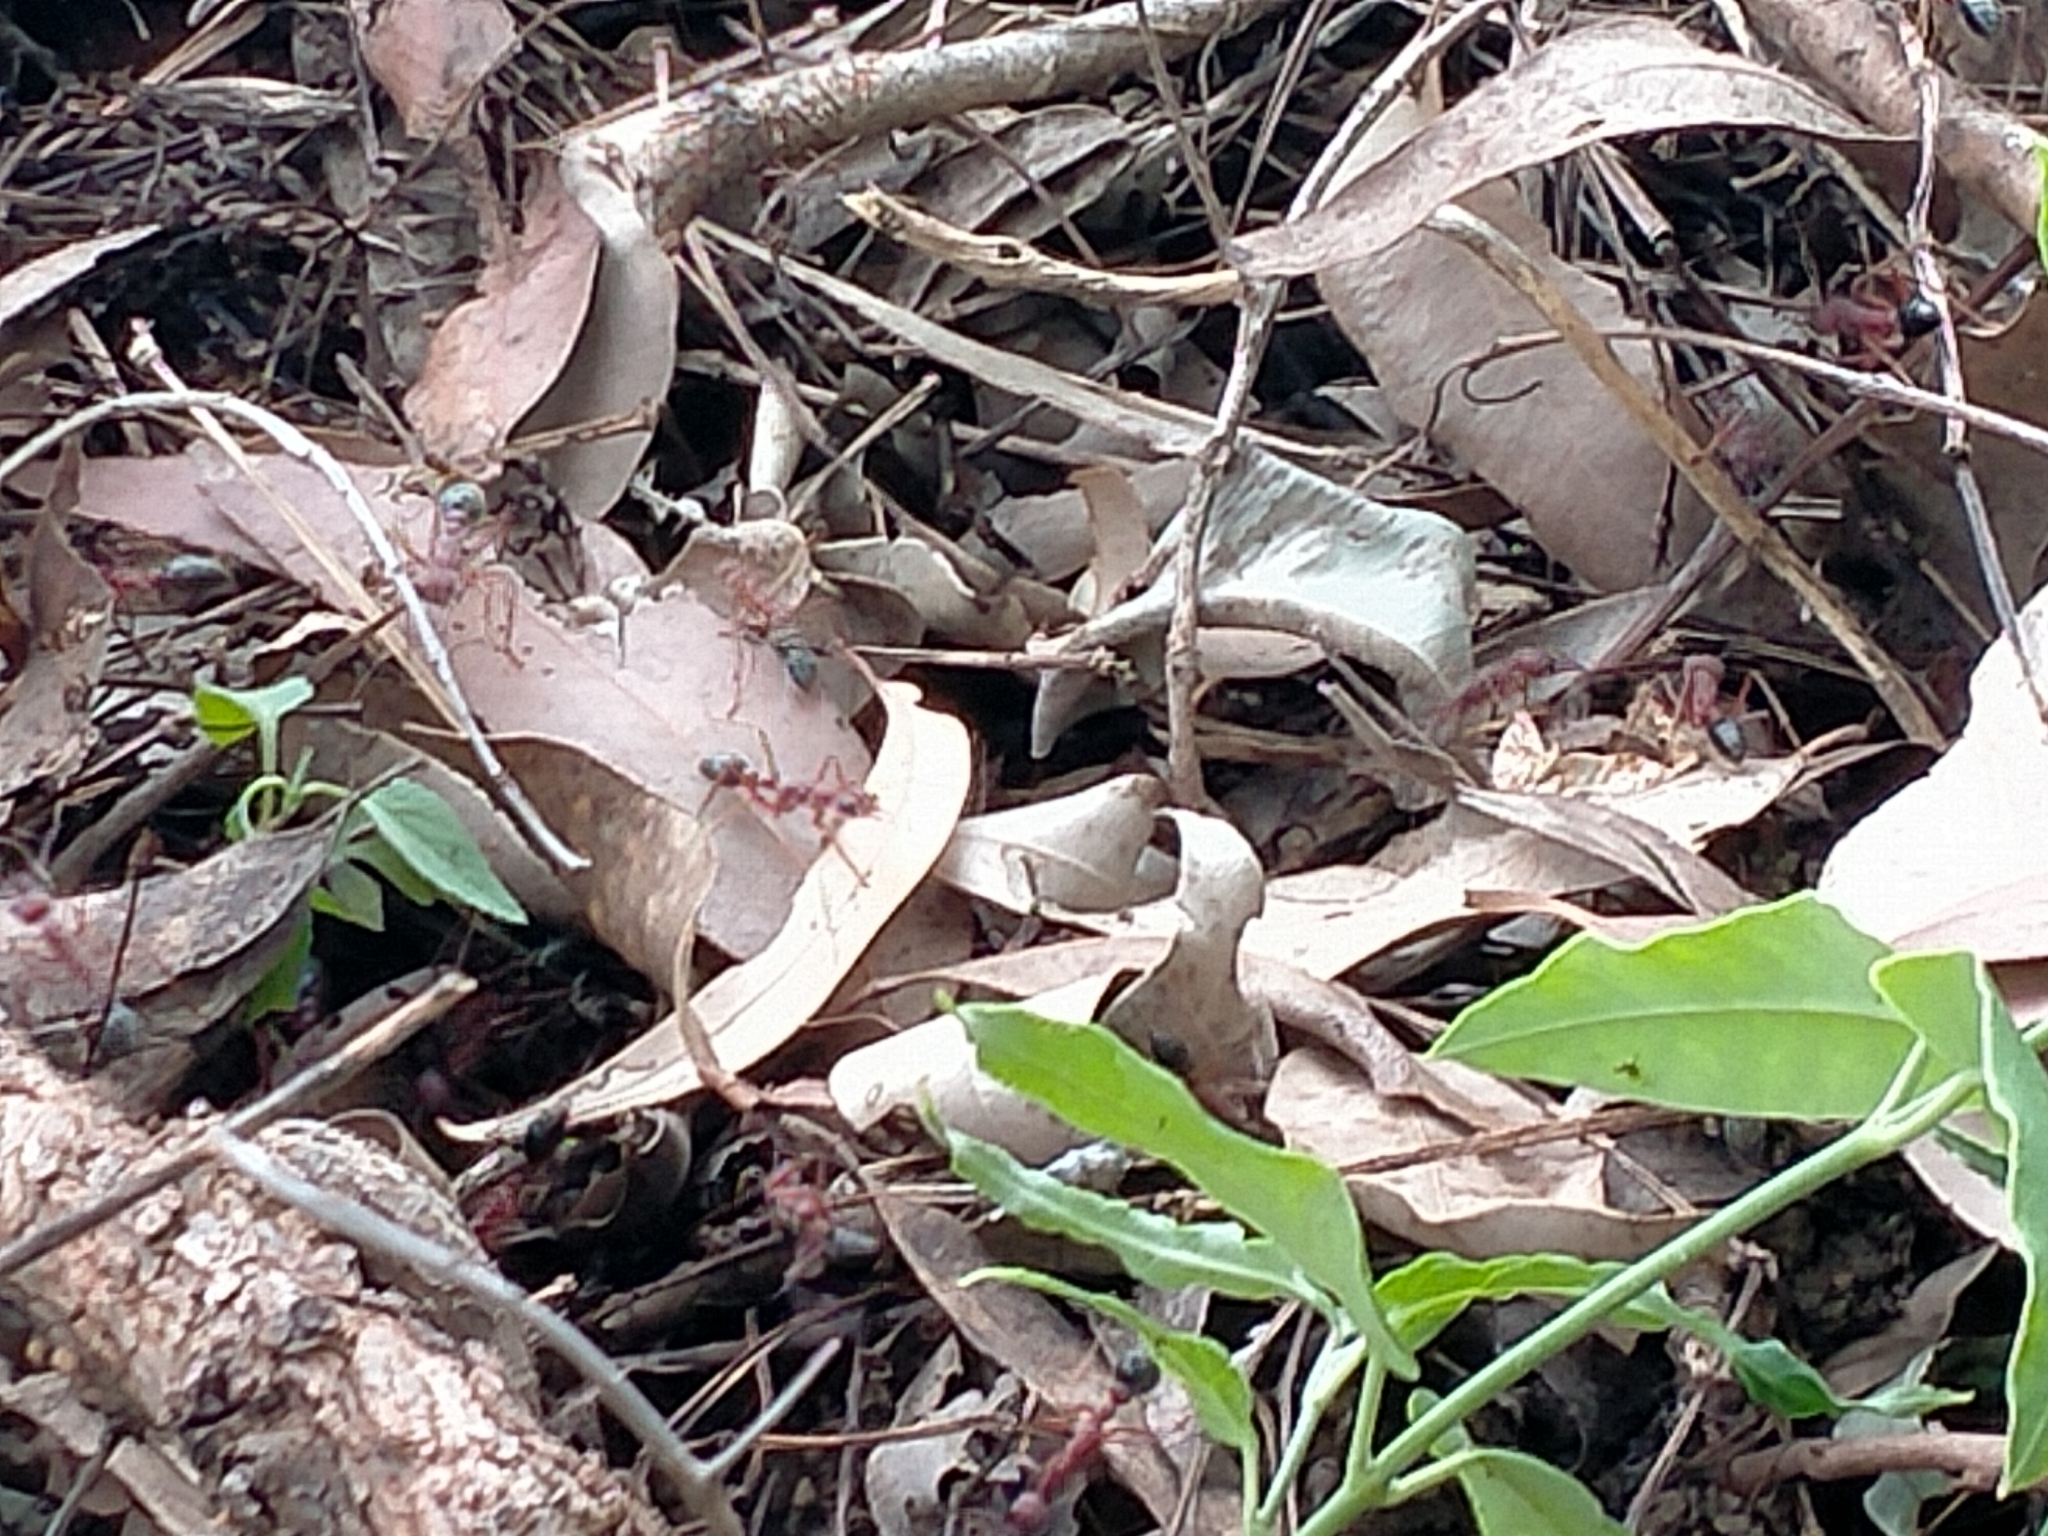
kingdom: Plantae
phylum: Tracheophyta
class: Magnoliopsida
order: Gentianales
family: Apocynaceae
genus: Araujia
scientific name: Araujia sericifera
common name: White bladderflower
